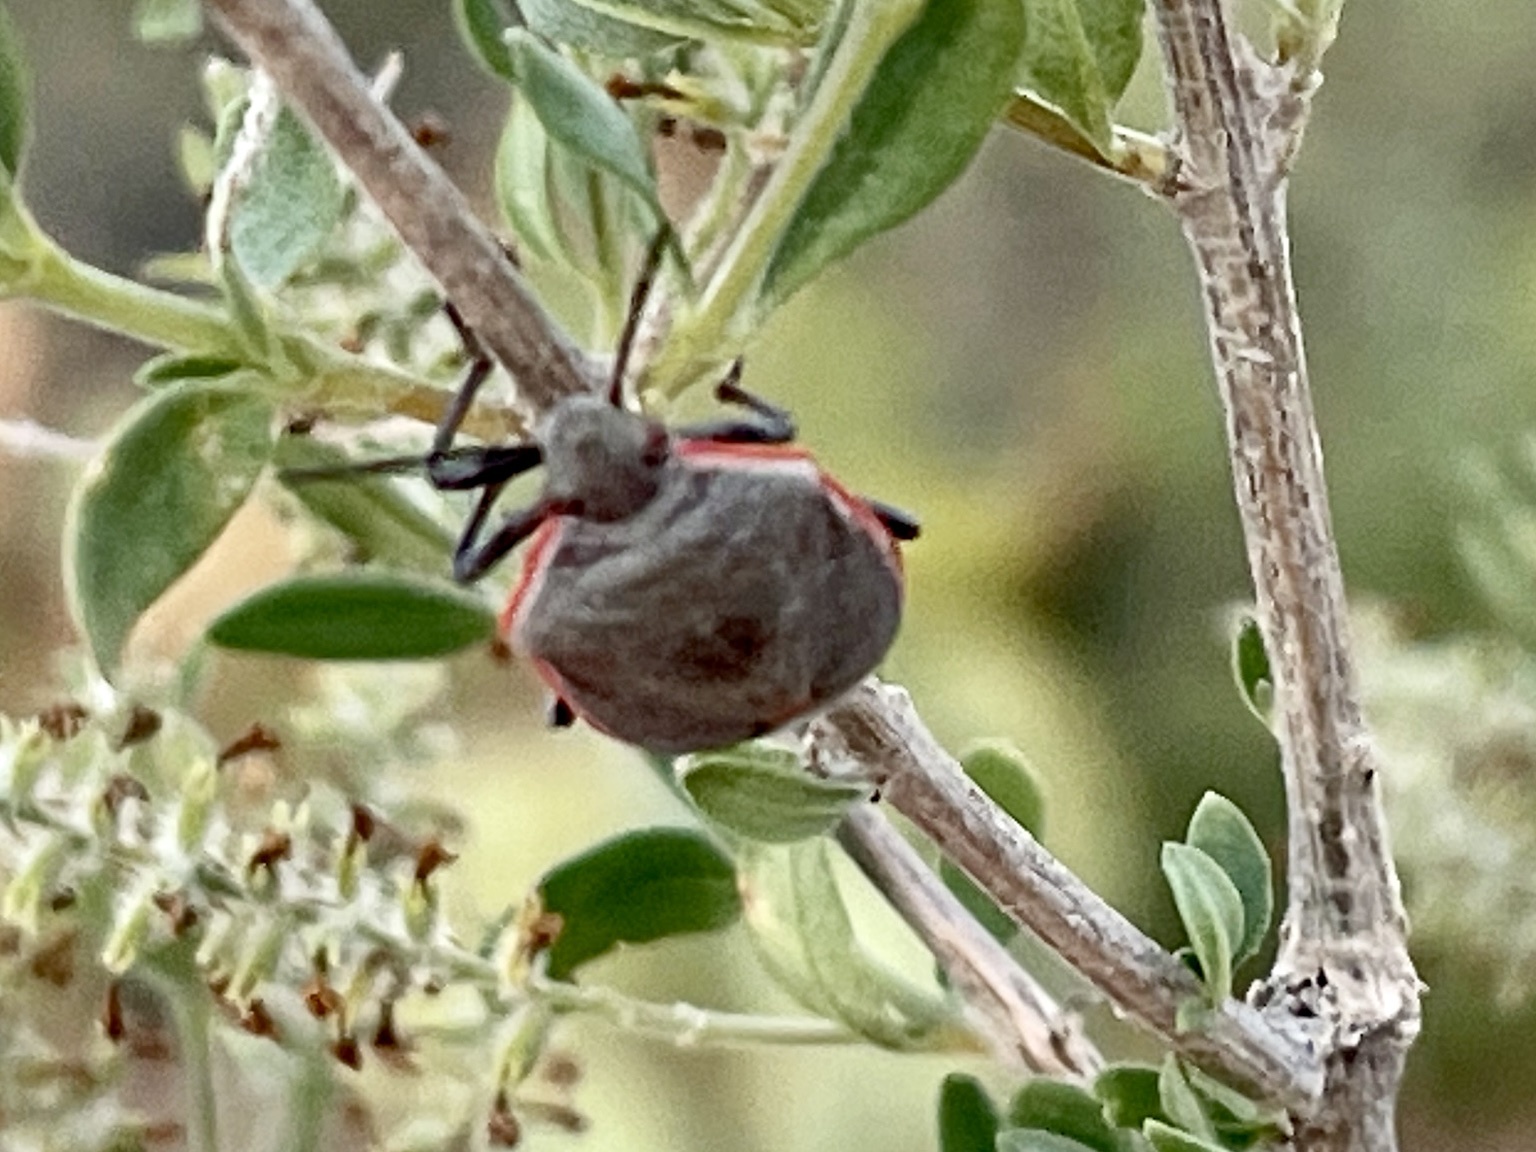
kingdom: Animalia
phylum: Arthropoda
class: Insecta
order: Hemiptera
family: Pentatomidae
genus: Chlorochroa
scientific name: Chlorochroa ligata
